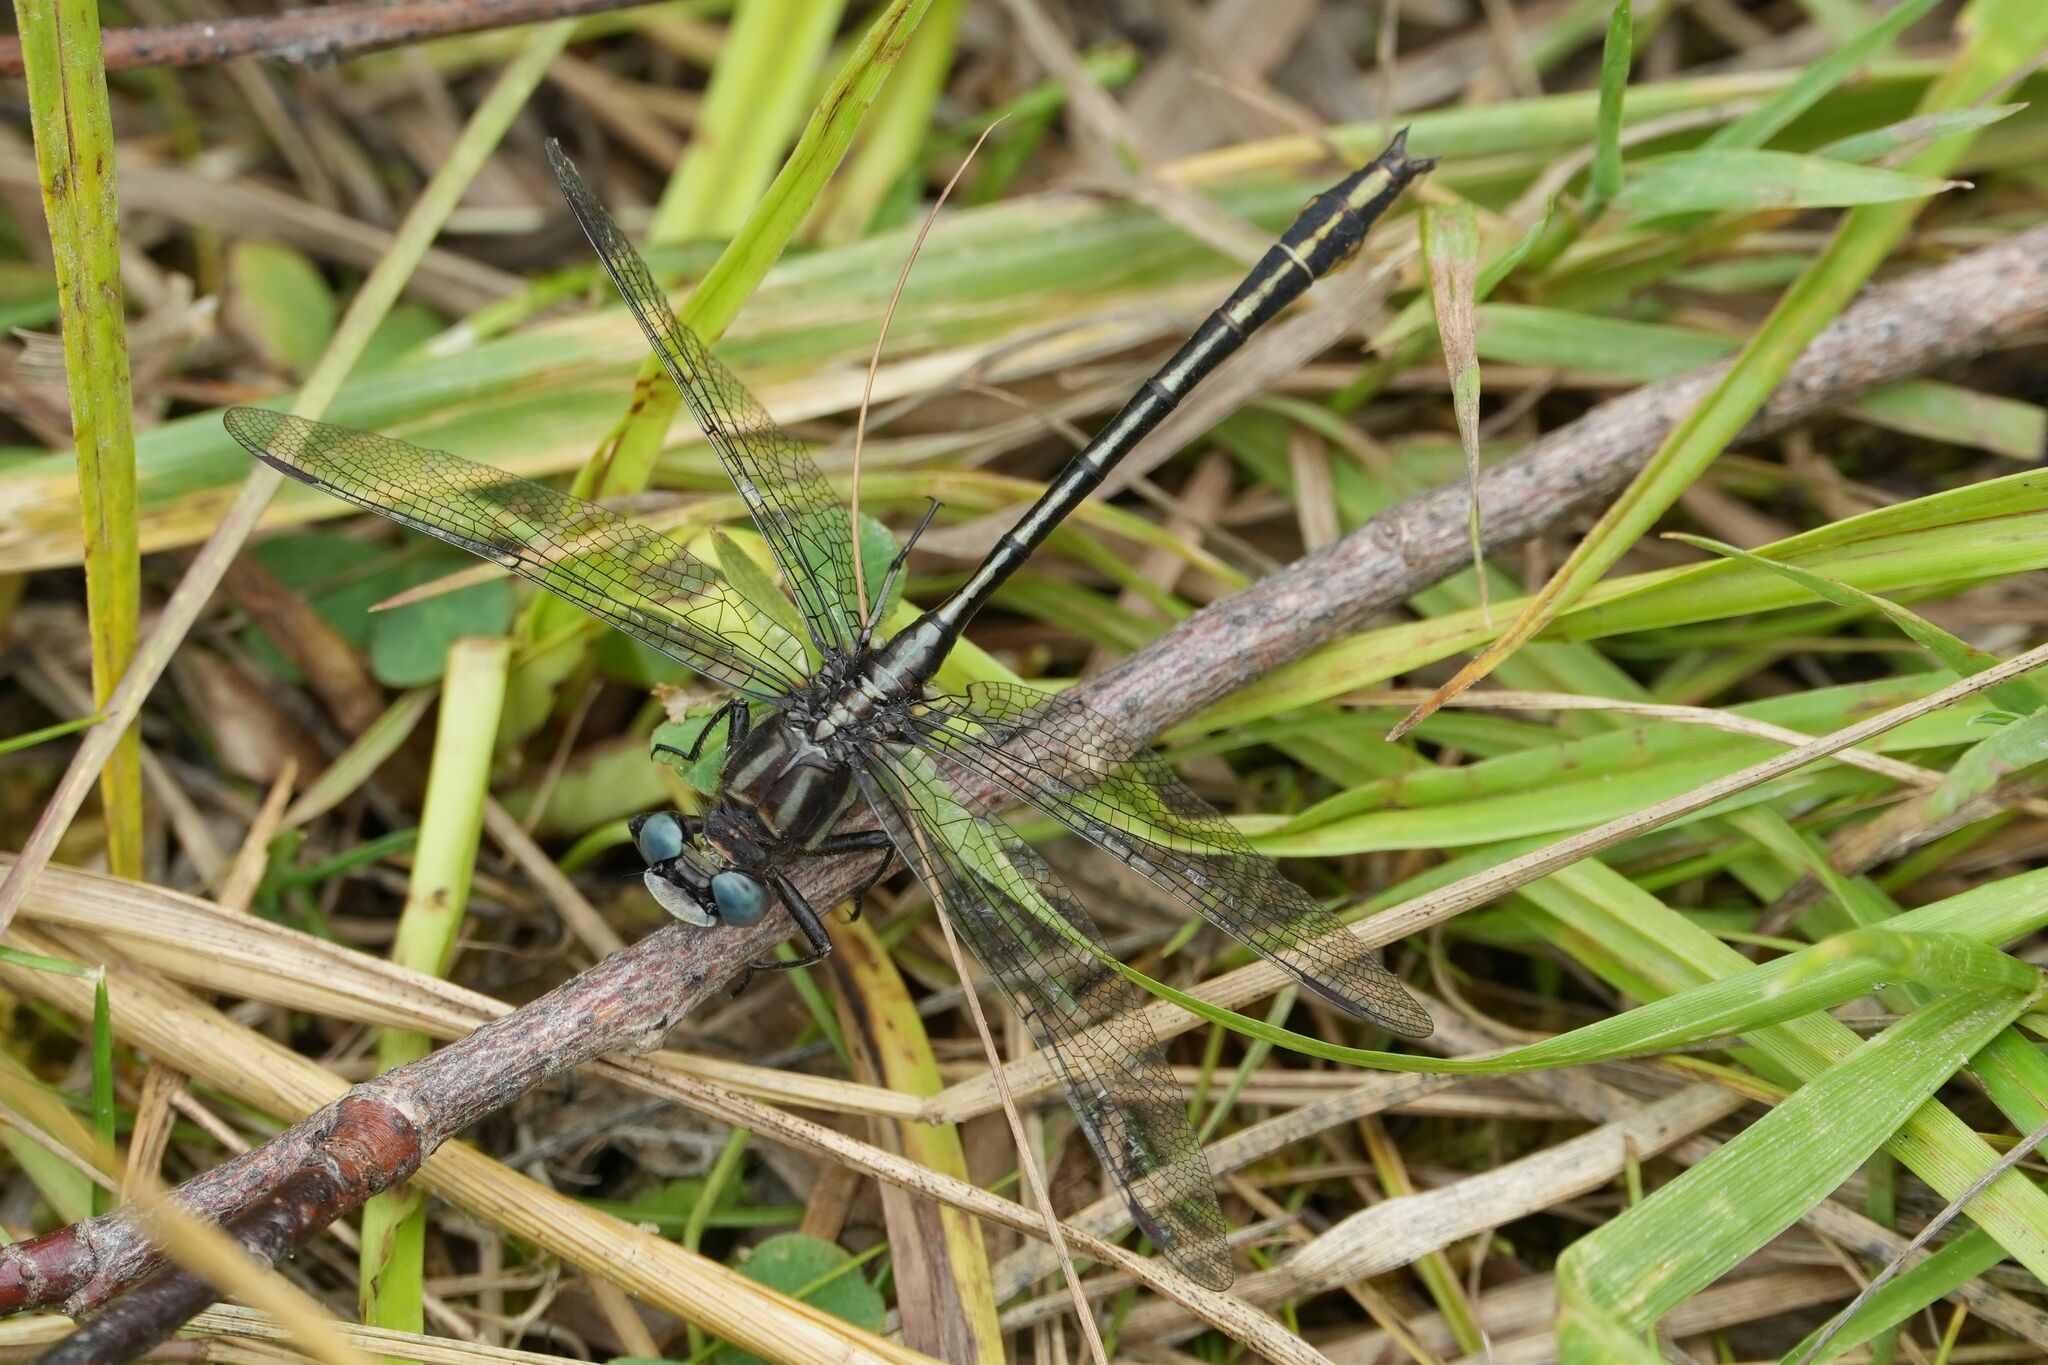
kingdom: Animalia
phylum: Arthropoda
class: Insecta
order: Odonata
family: Gomphidae
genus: Phanogomphus
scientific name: Phanogomphus exilis
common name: Lancet clubtail
